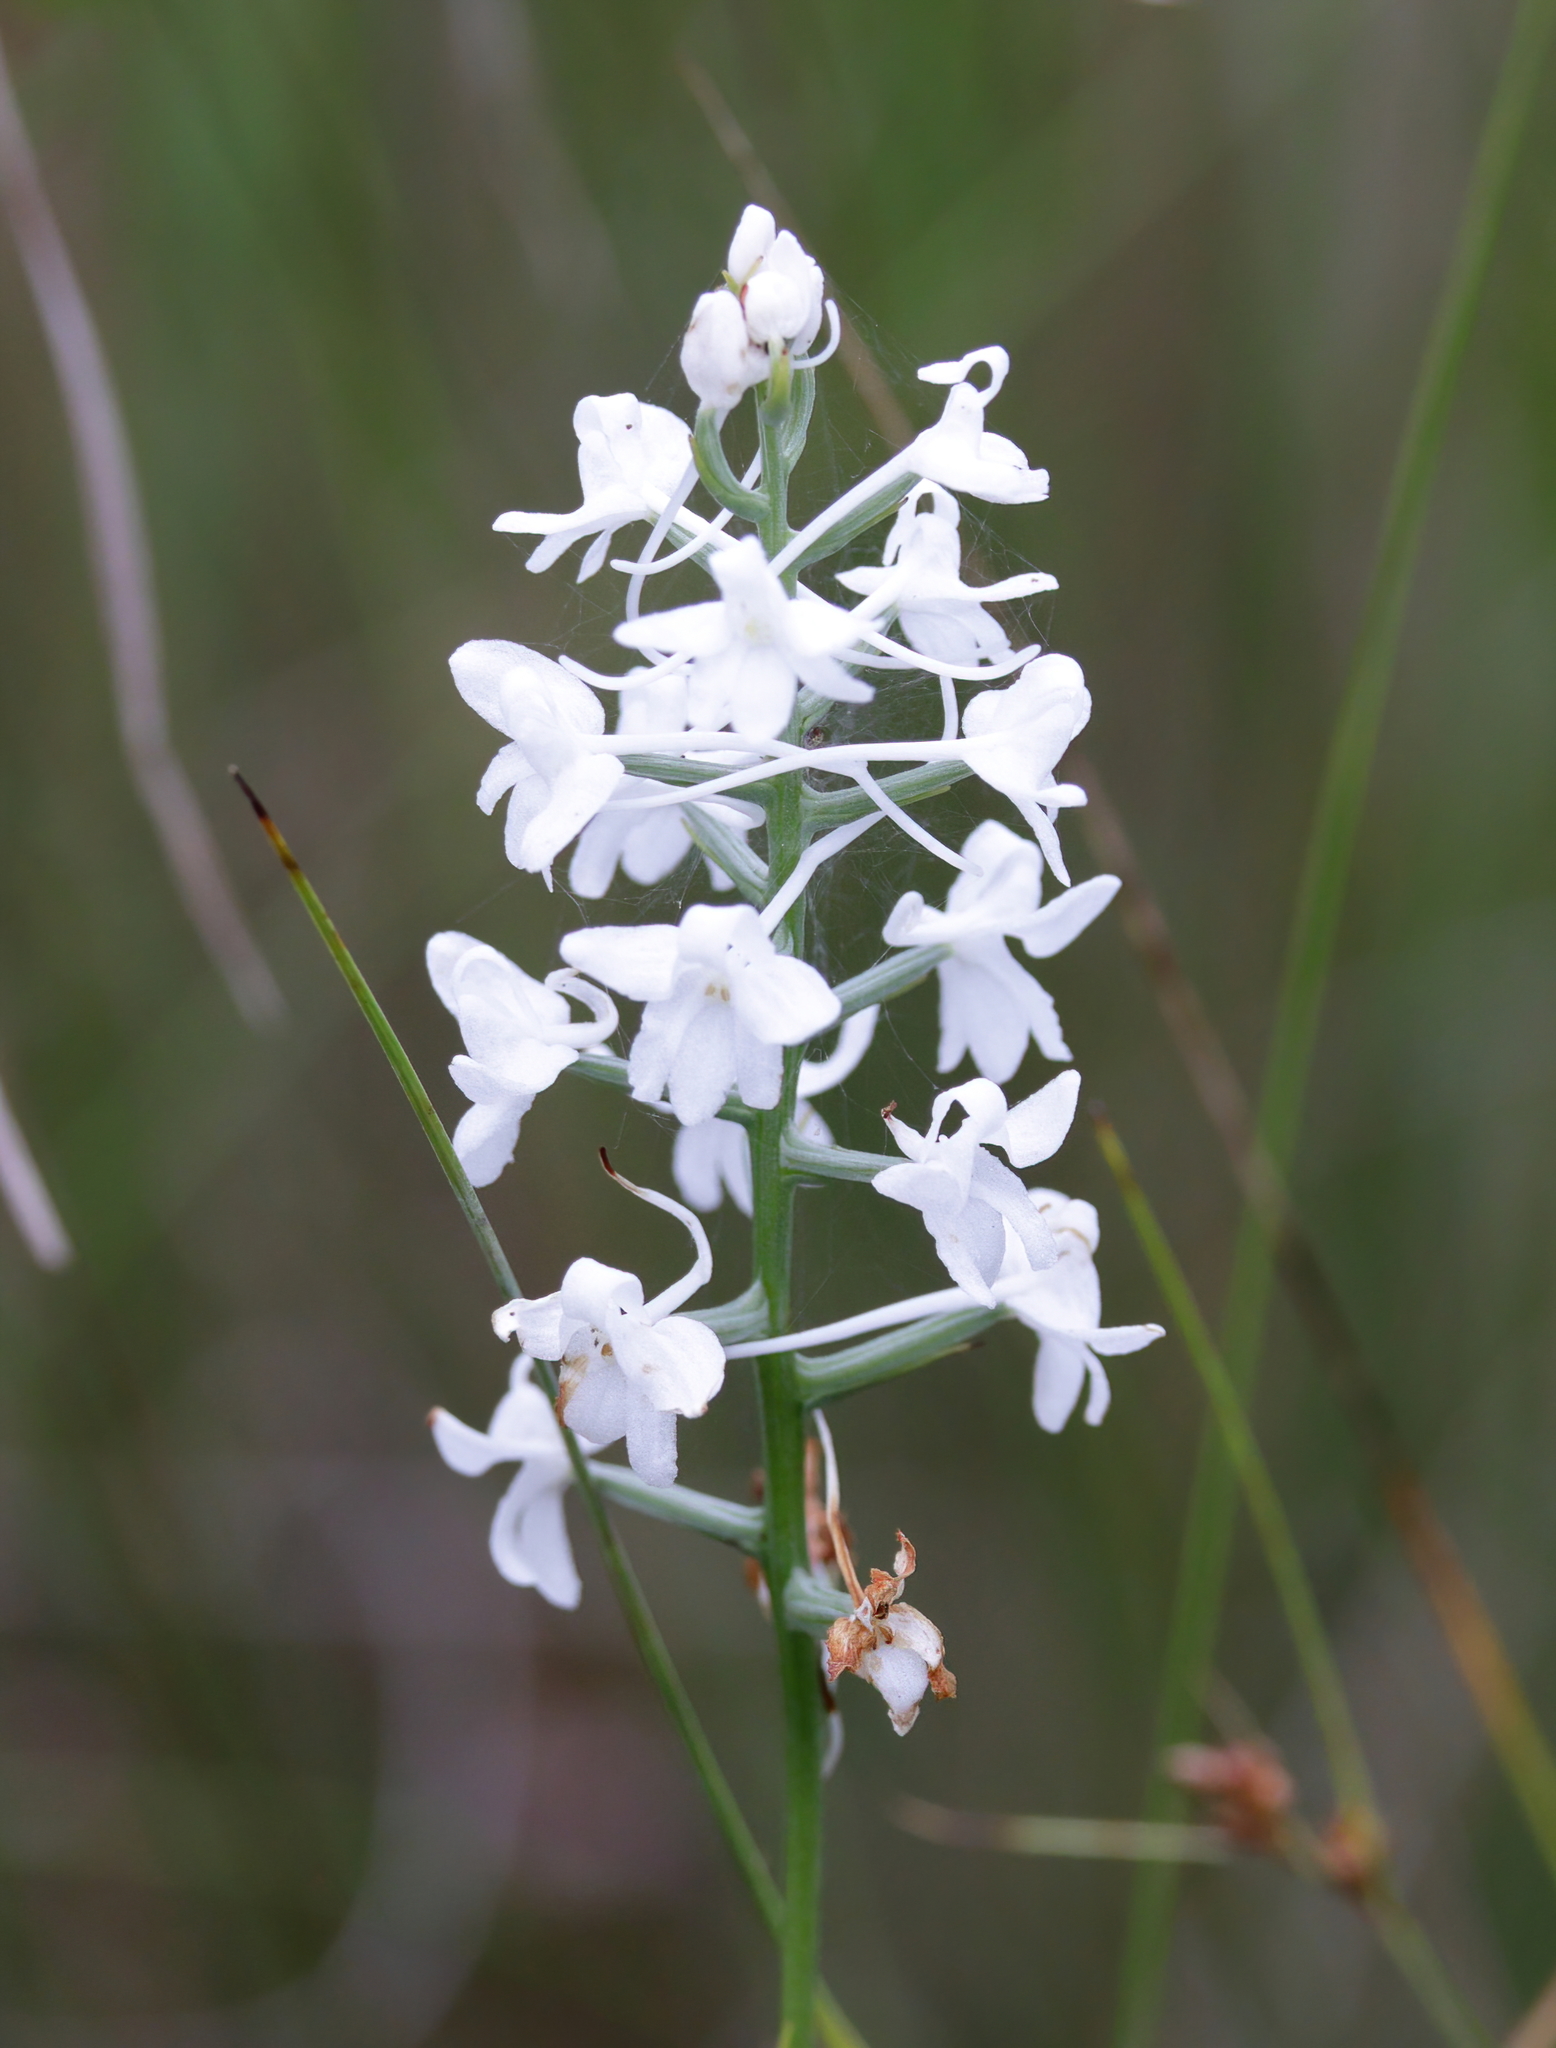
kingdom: Plantae
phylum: Tracheophyta
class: Liliopsida
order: Asparagales
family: Orchidaceae
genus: Platanthera
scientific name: Platanthera nivea
